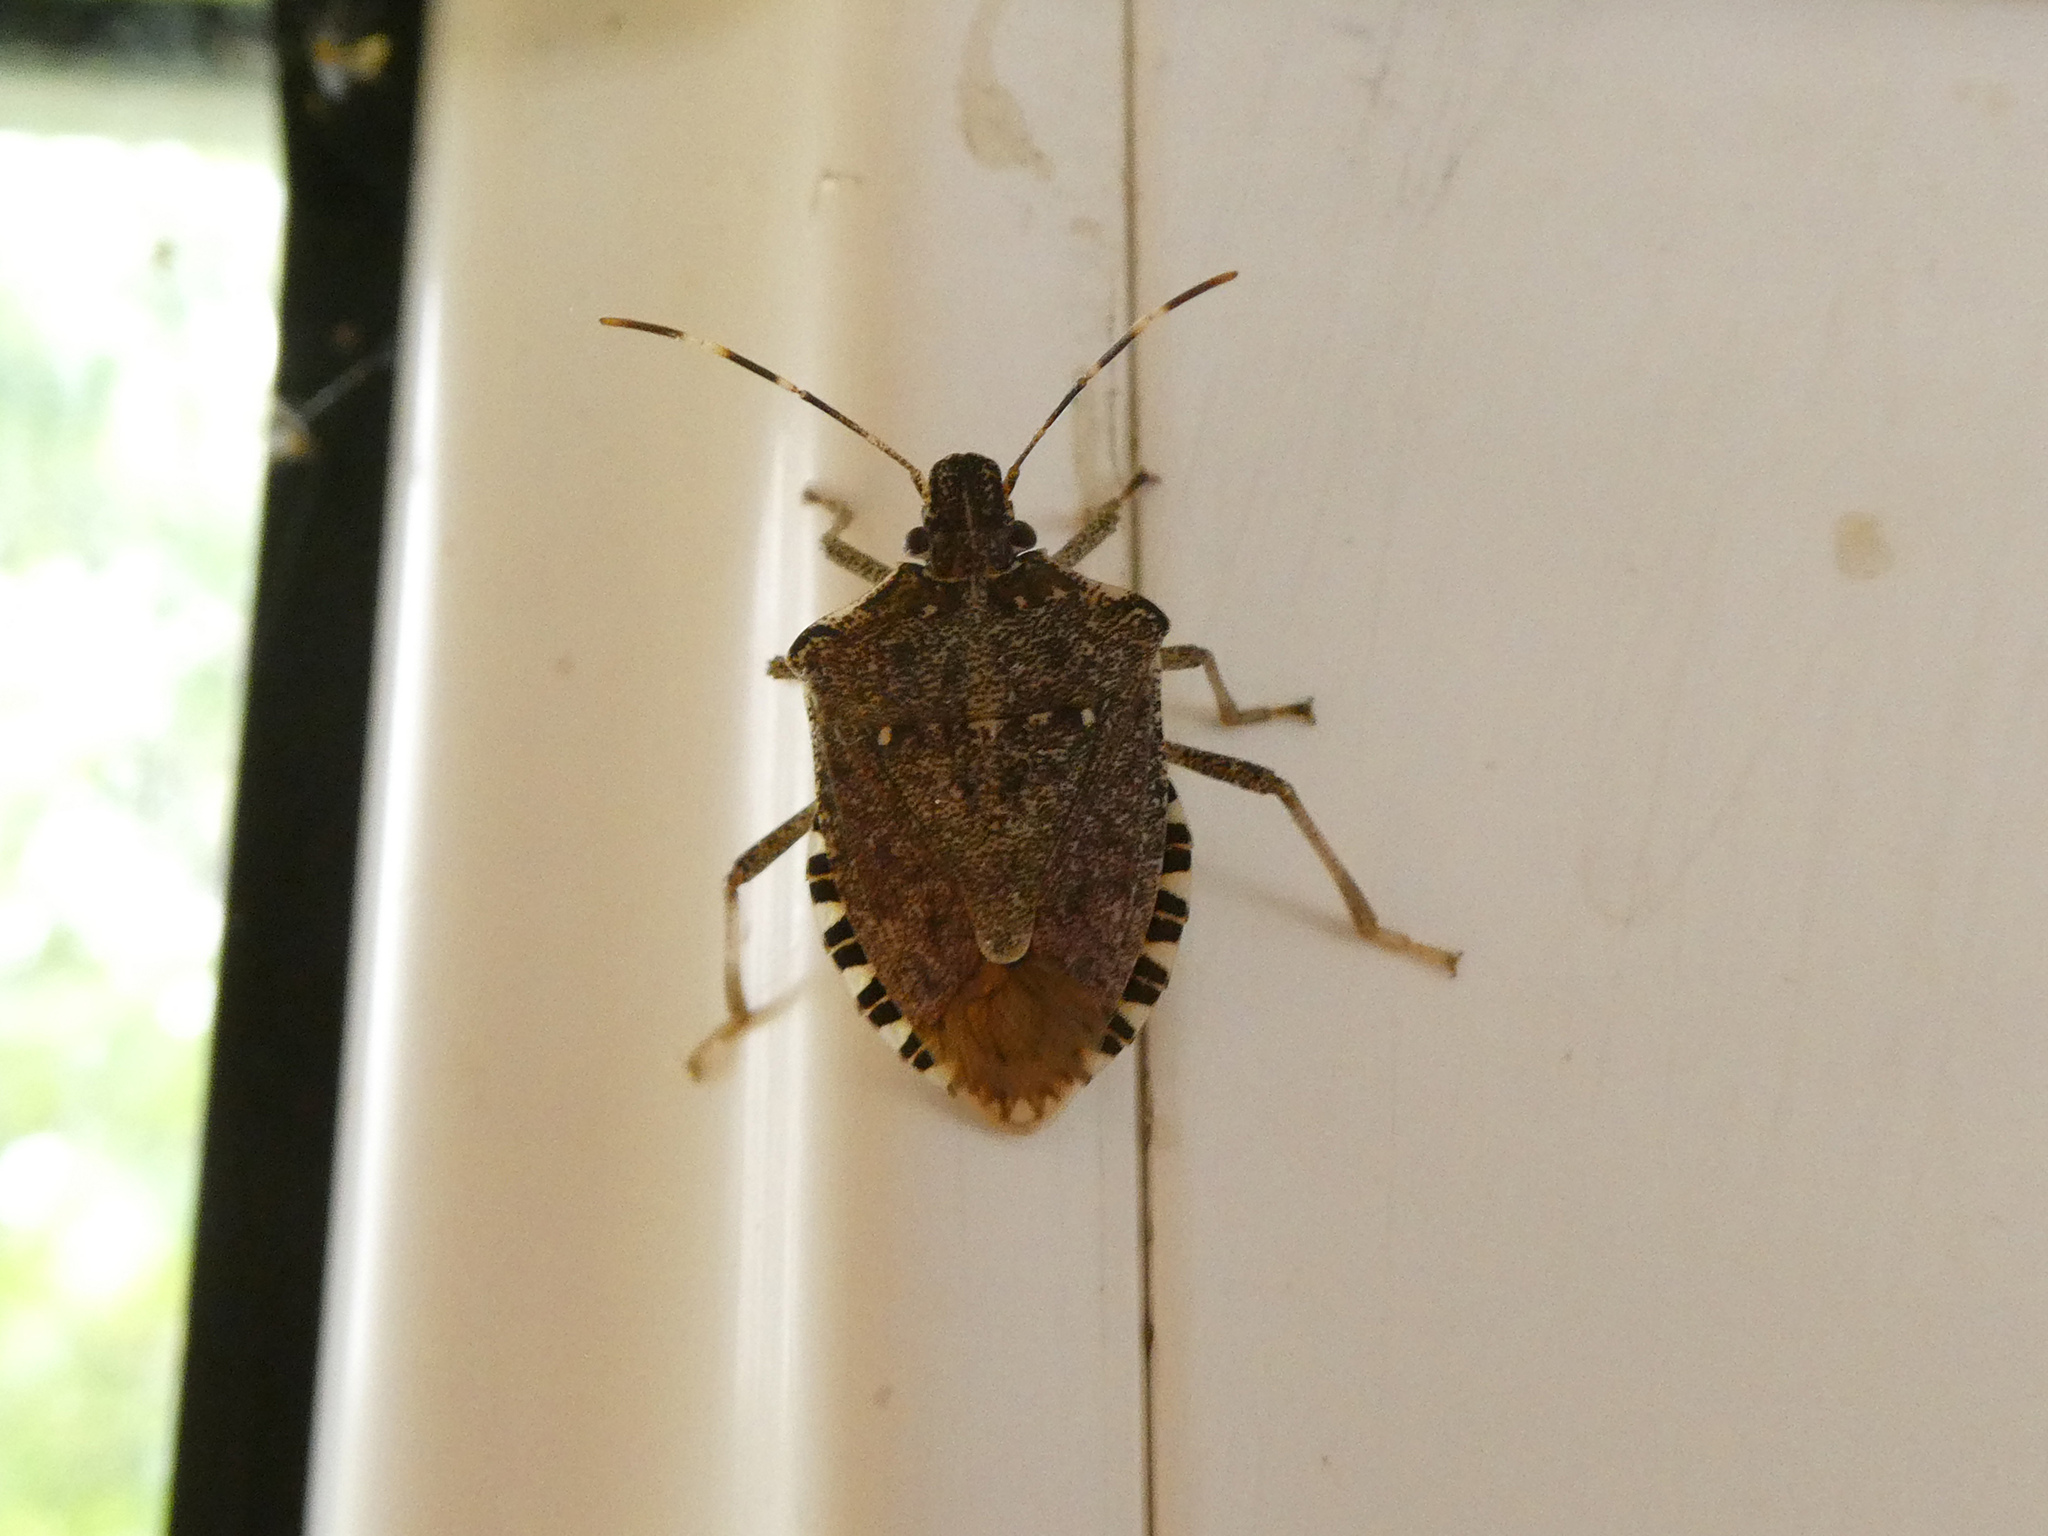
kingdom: Animalia
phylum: Arthropoda
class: Insecta
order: Hemiptera
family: Pentatomidae
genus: Halyomorpha
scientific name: Halyomorpha halys
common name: Brown marmorated stink bug
